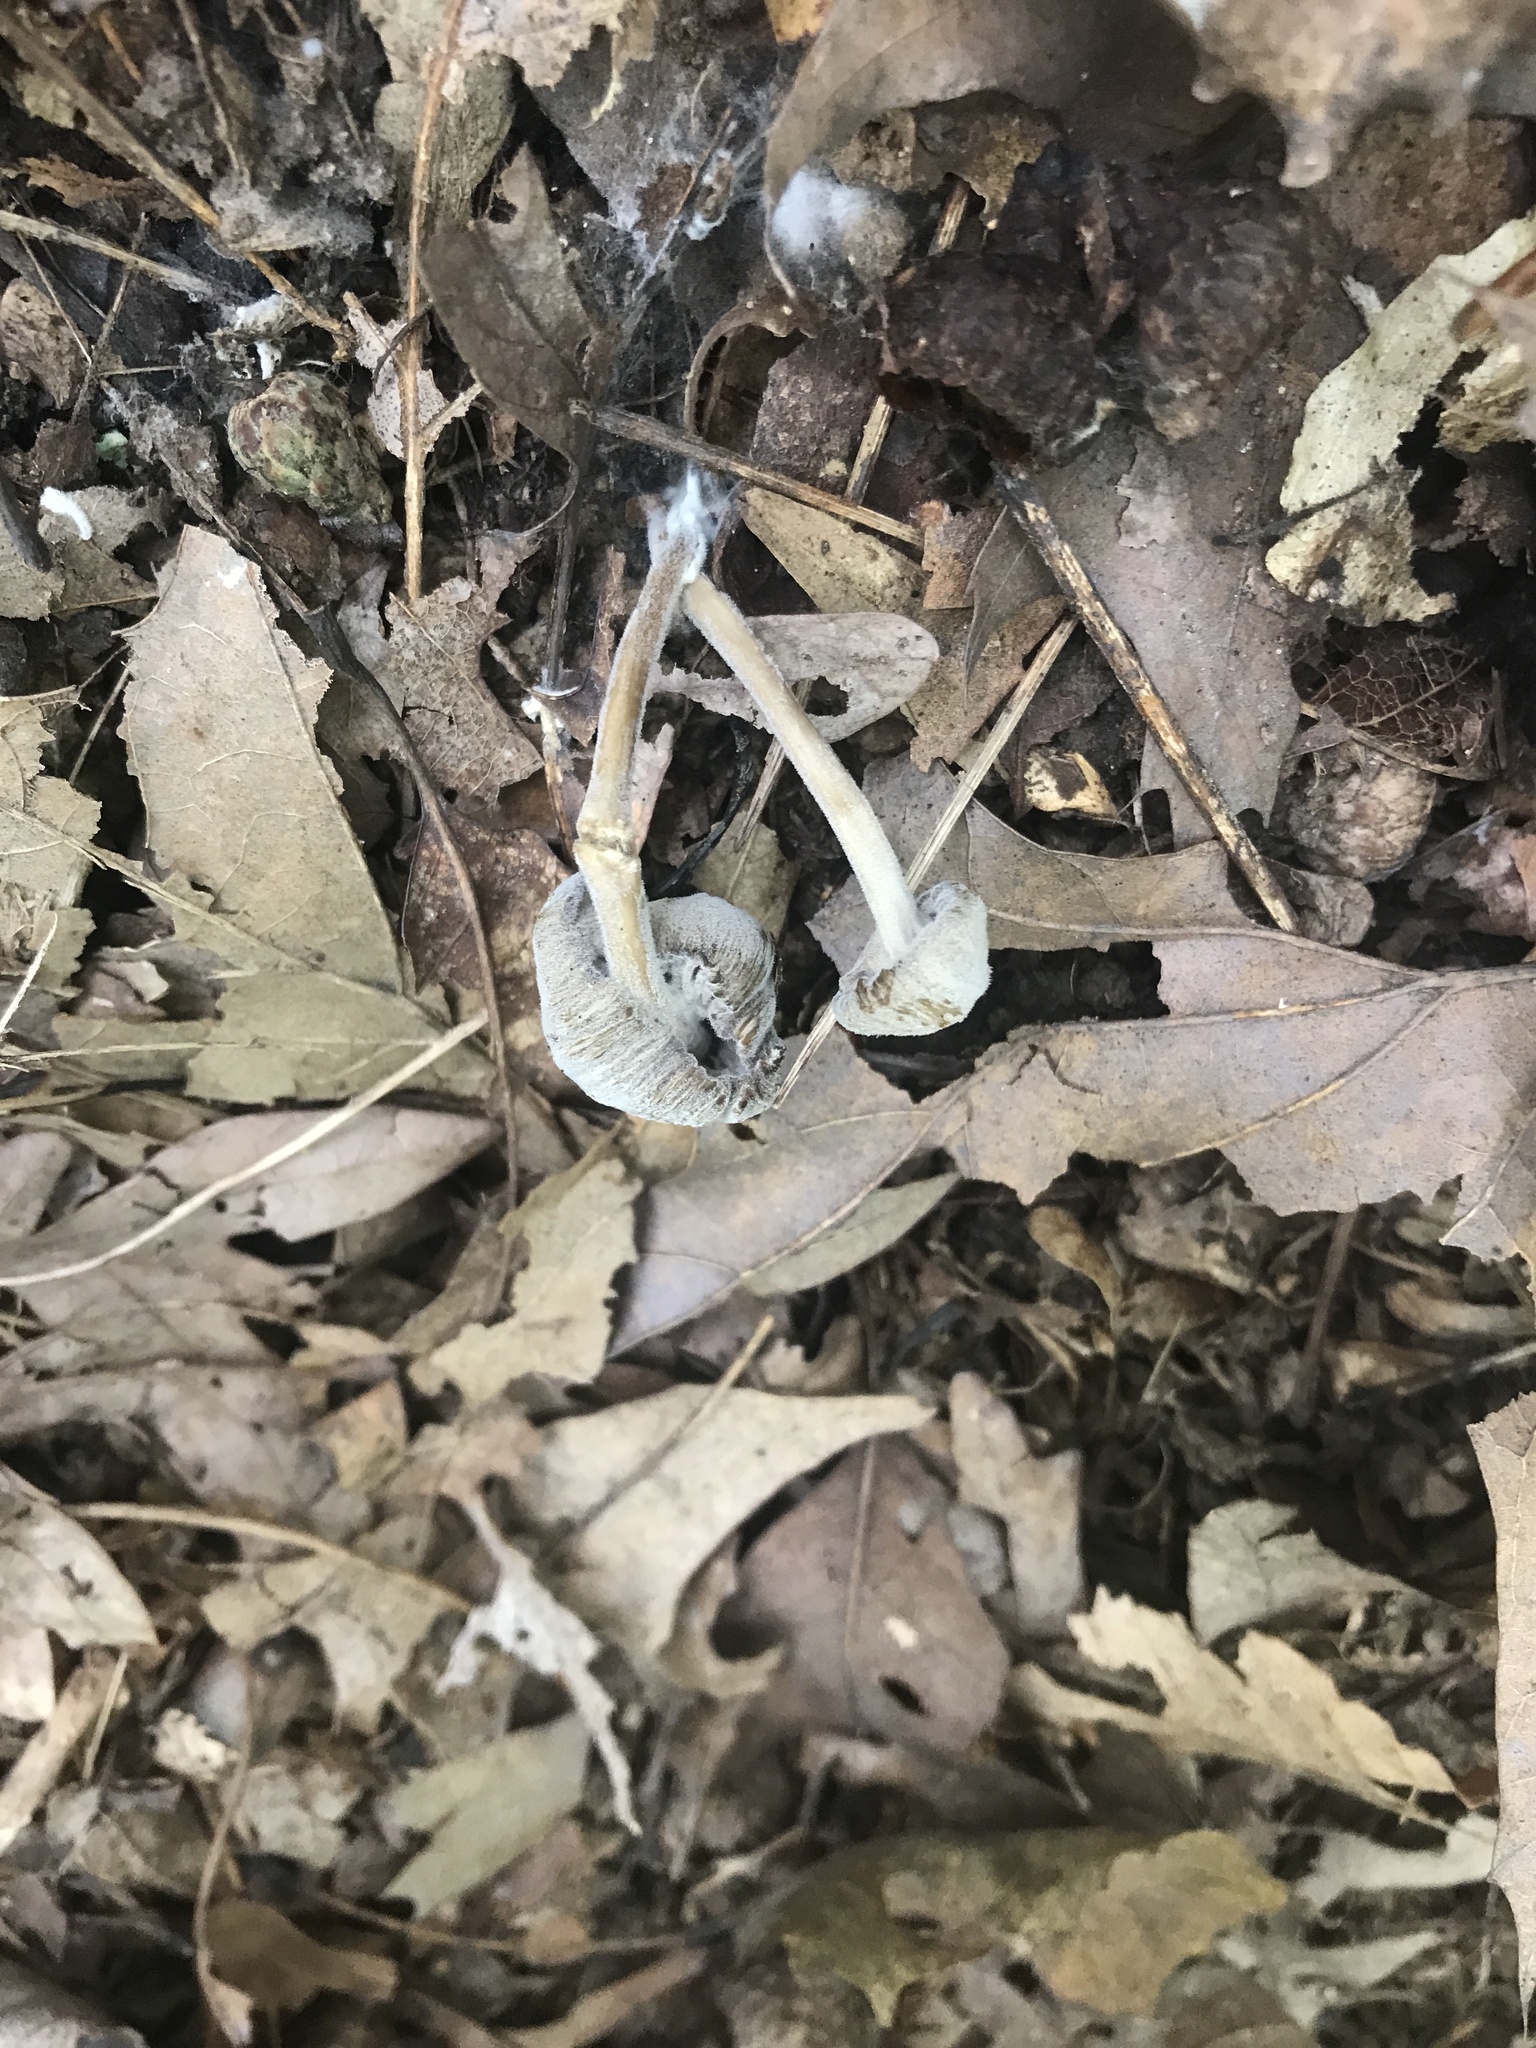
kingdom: Fungi
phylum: Basidiomycota
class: Agaricomycetes
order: Agaricales
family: Entolomataceae
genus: Entoloma
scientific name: Entoloma olivaceomarginatum
